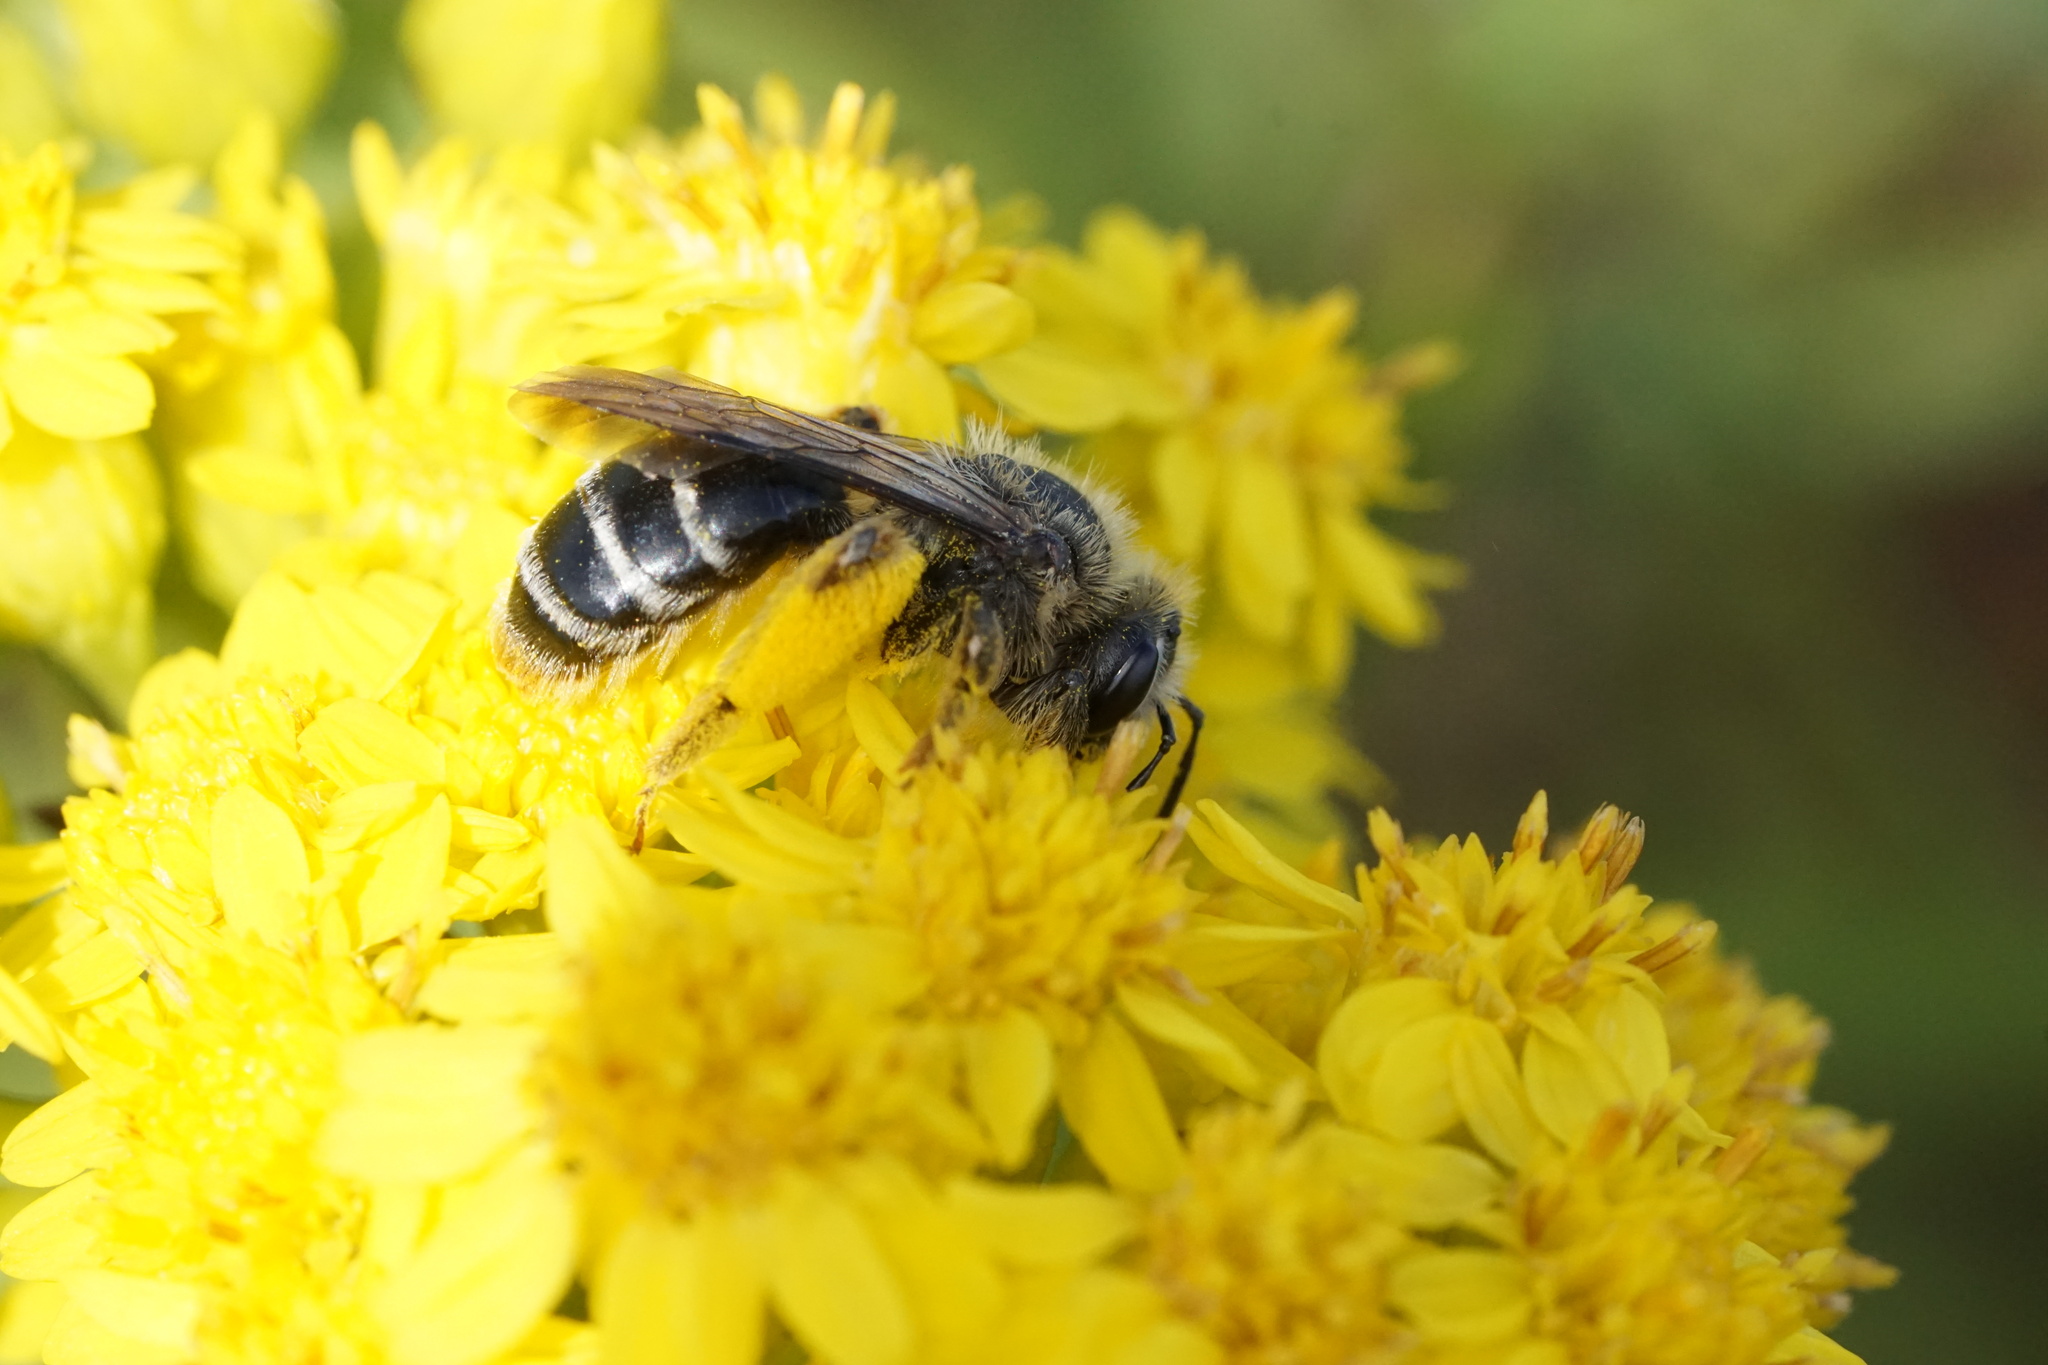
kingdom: Animalia
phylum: Arthropoda
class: Insecta
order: Hymenoptera
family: Andrenidae
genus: Andrena
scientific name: Andrena braccata
